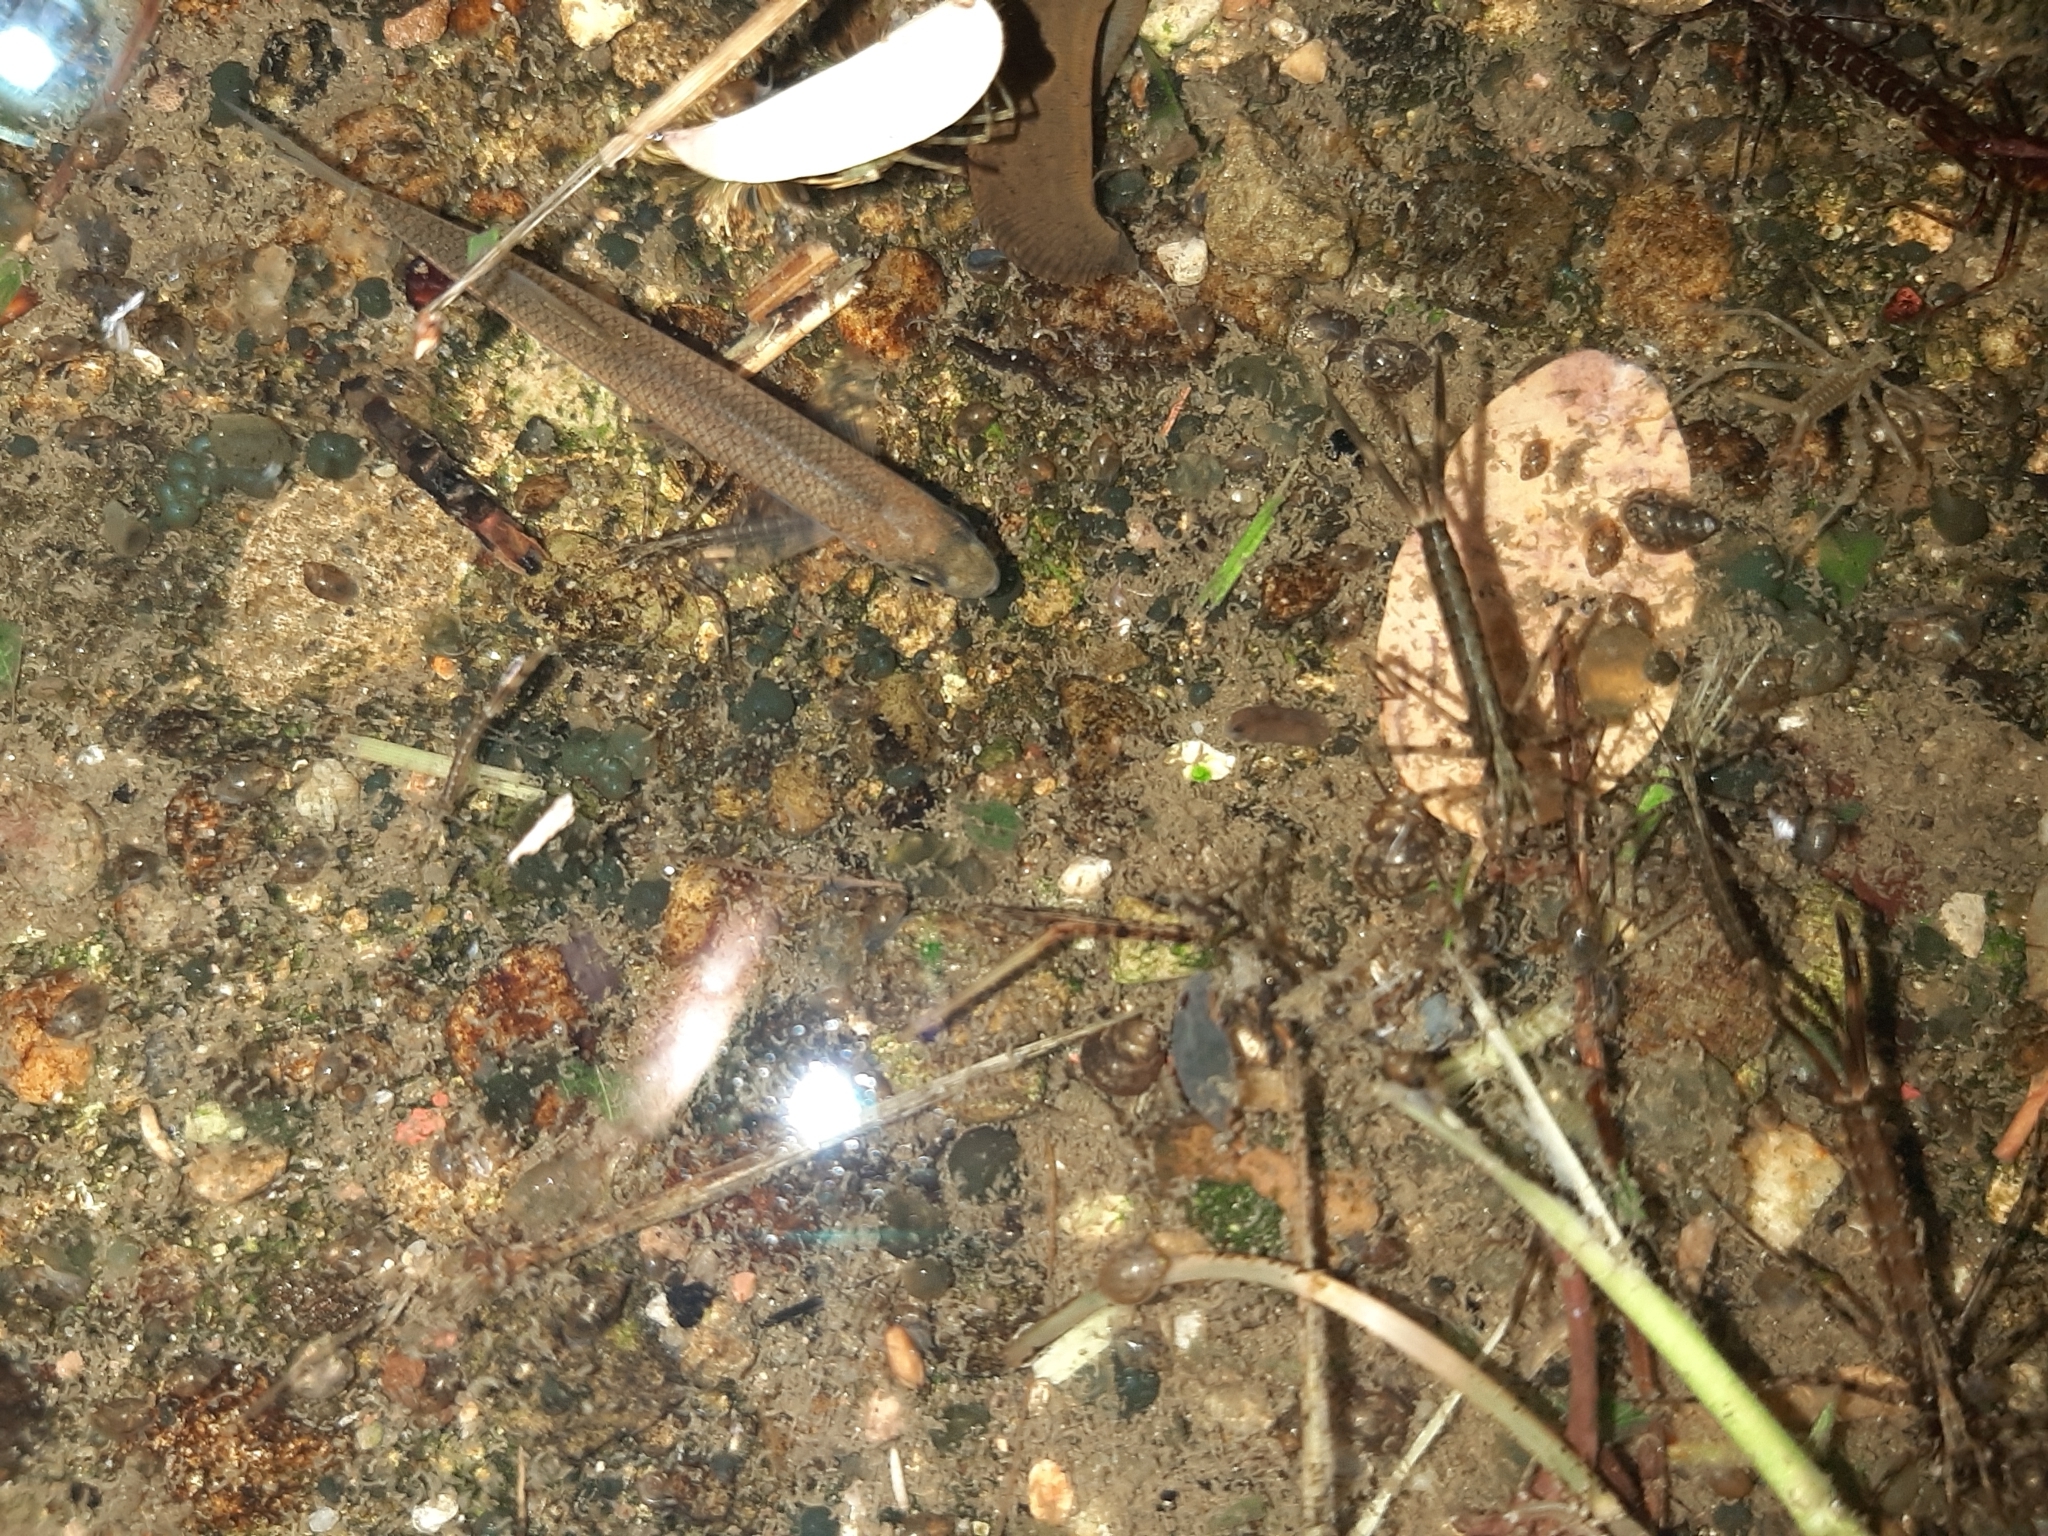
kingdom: Animalia
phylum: Chordata
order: Cypriniformes
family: Cyprinidae
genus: Alburnus
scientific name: Alburnus arborella
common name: Alborella
